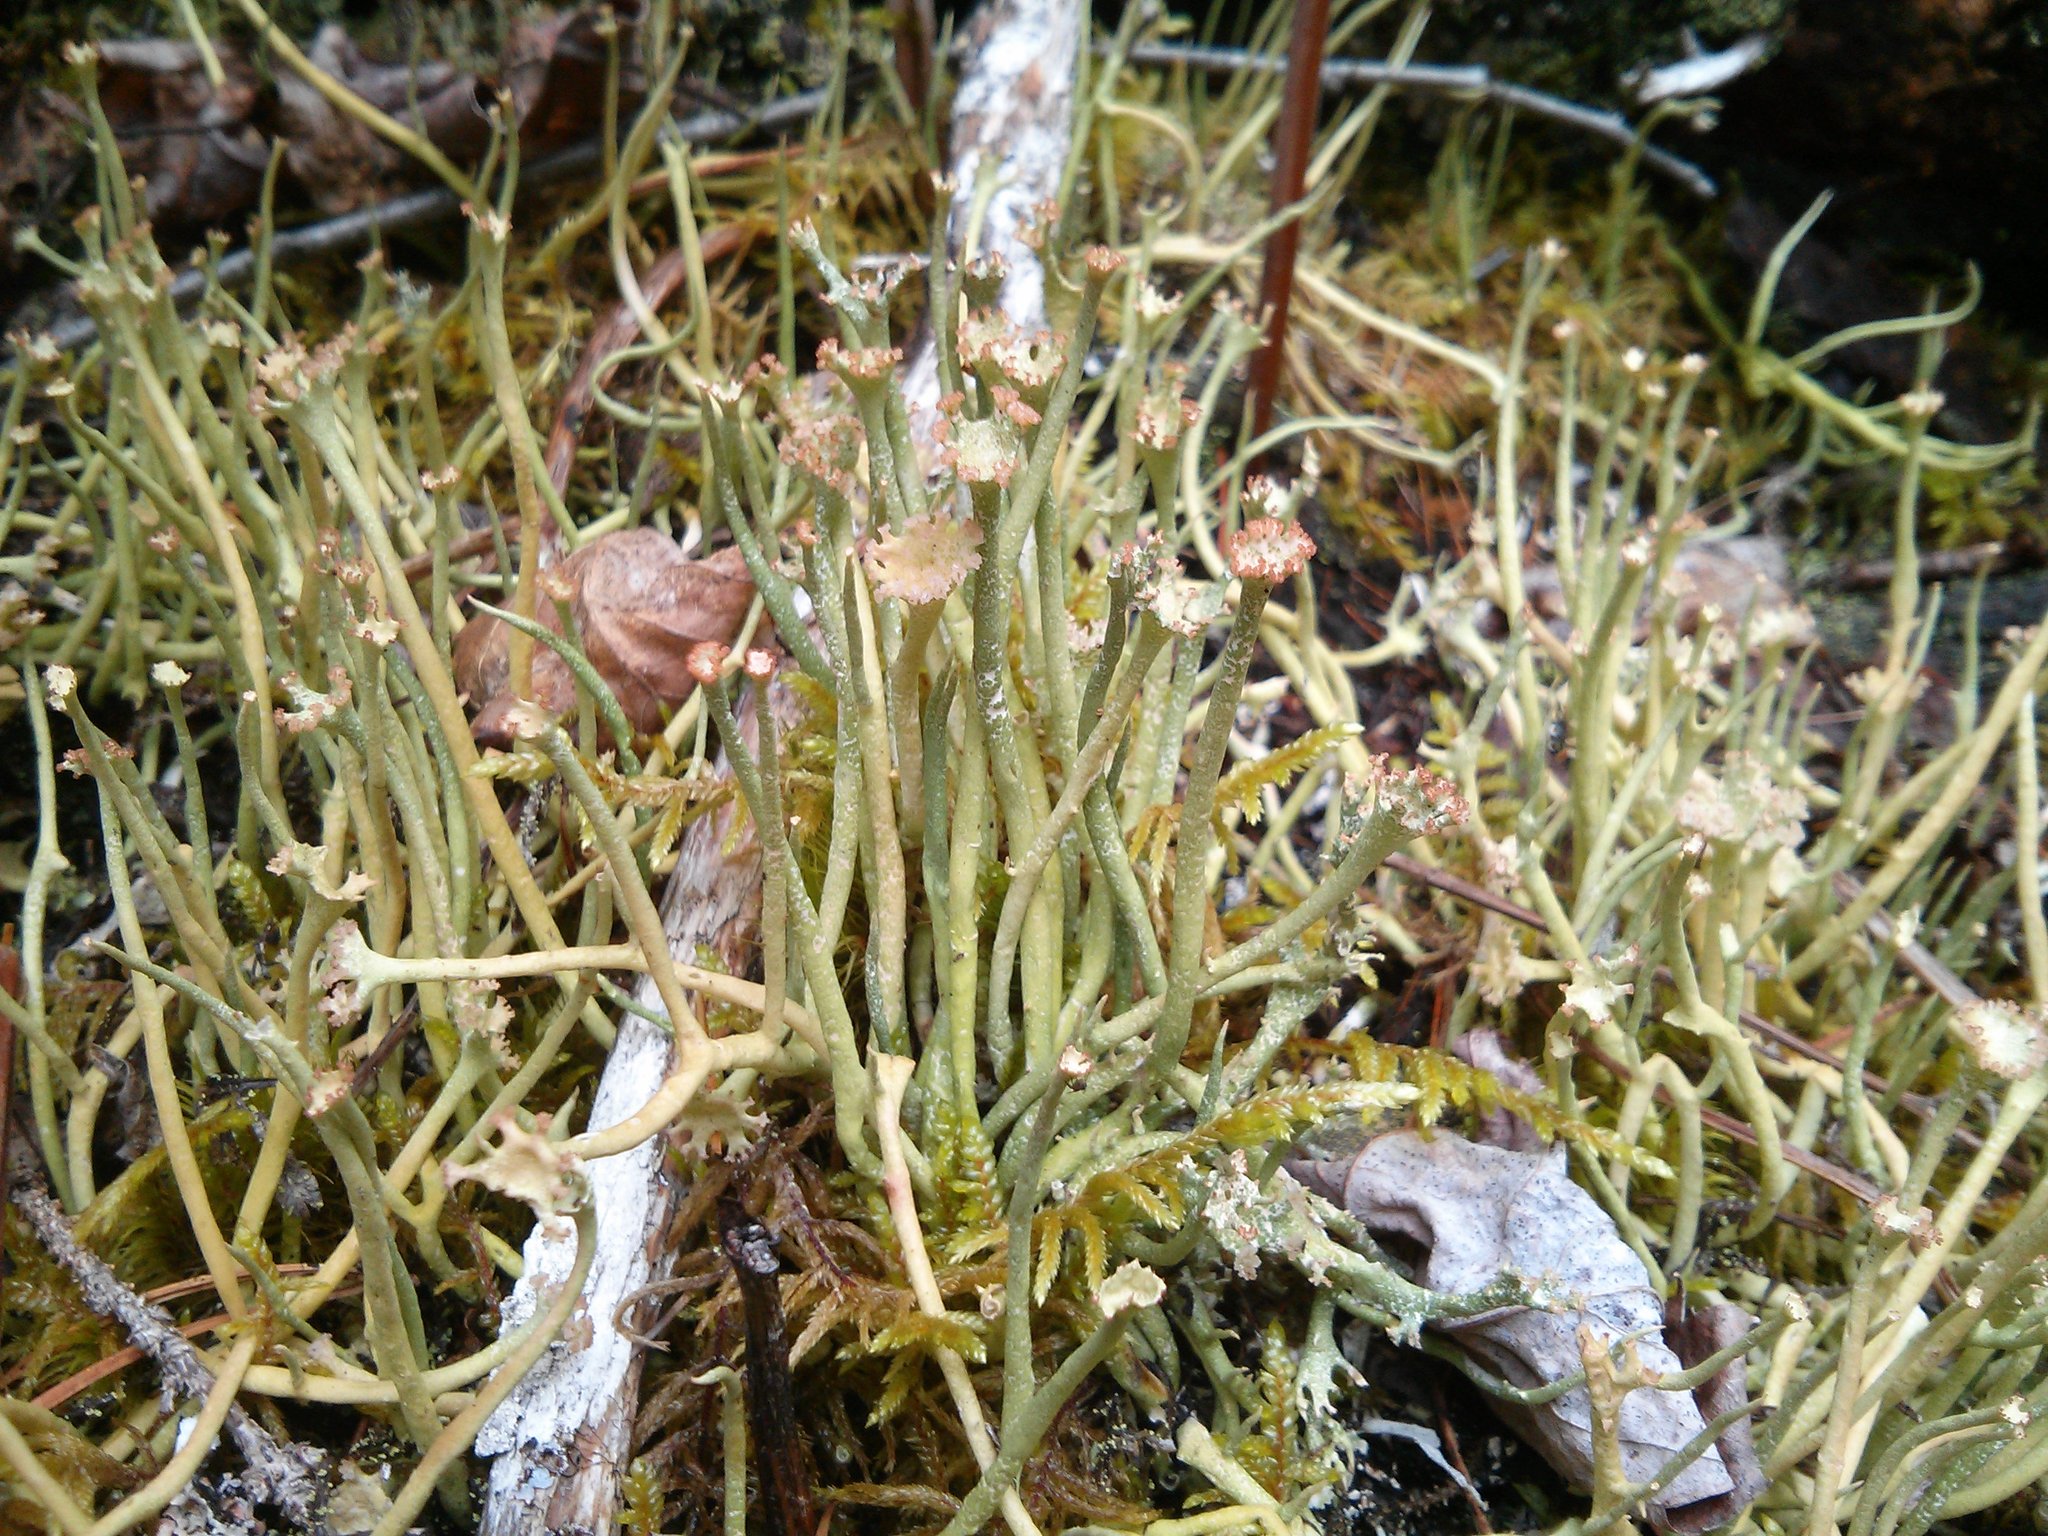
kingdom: Fungi
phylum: Ascomycota
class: Lecanoromycetes
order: Lecanorales
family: Cladoniaceae
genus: Cladonia
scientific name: Cladonia maxima
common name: Giant cladonia lichen
